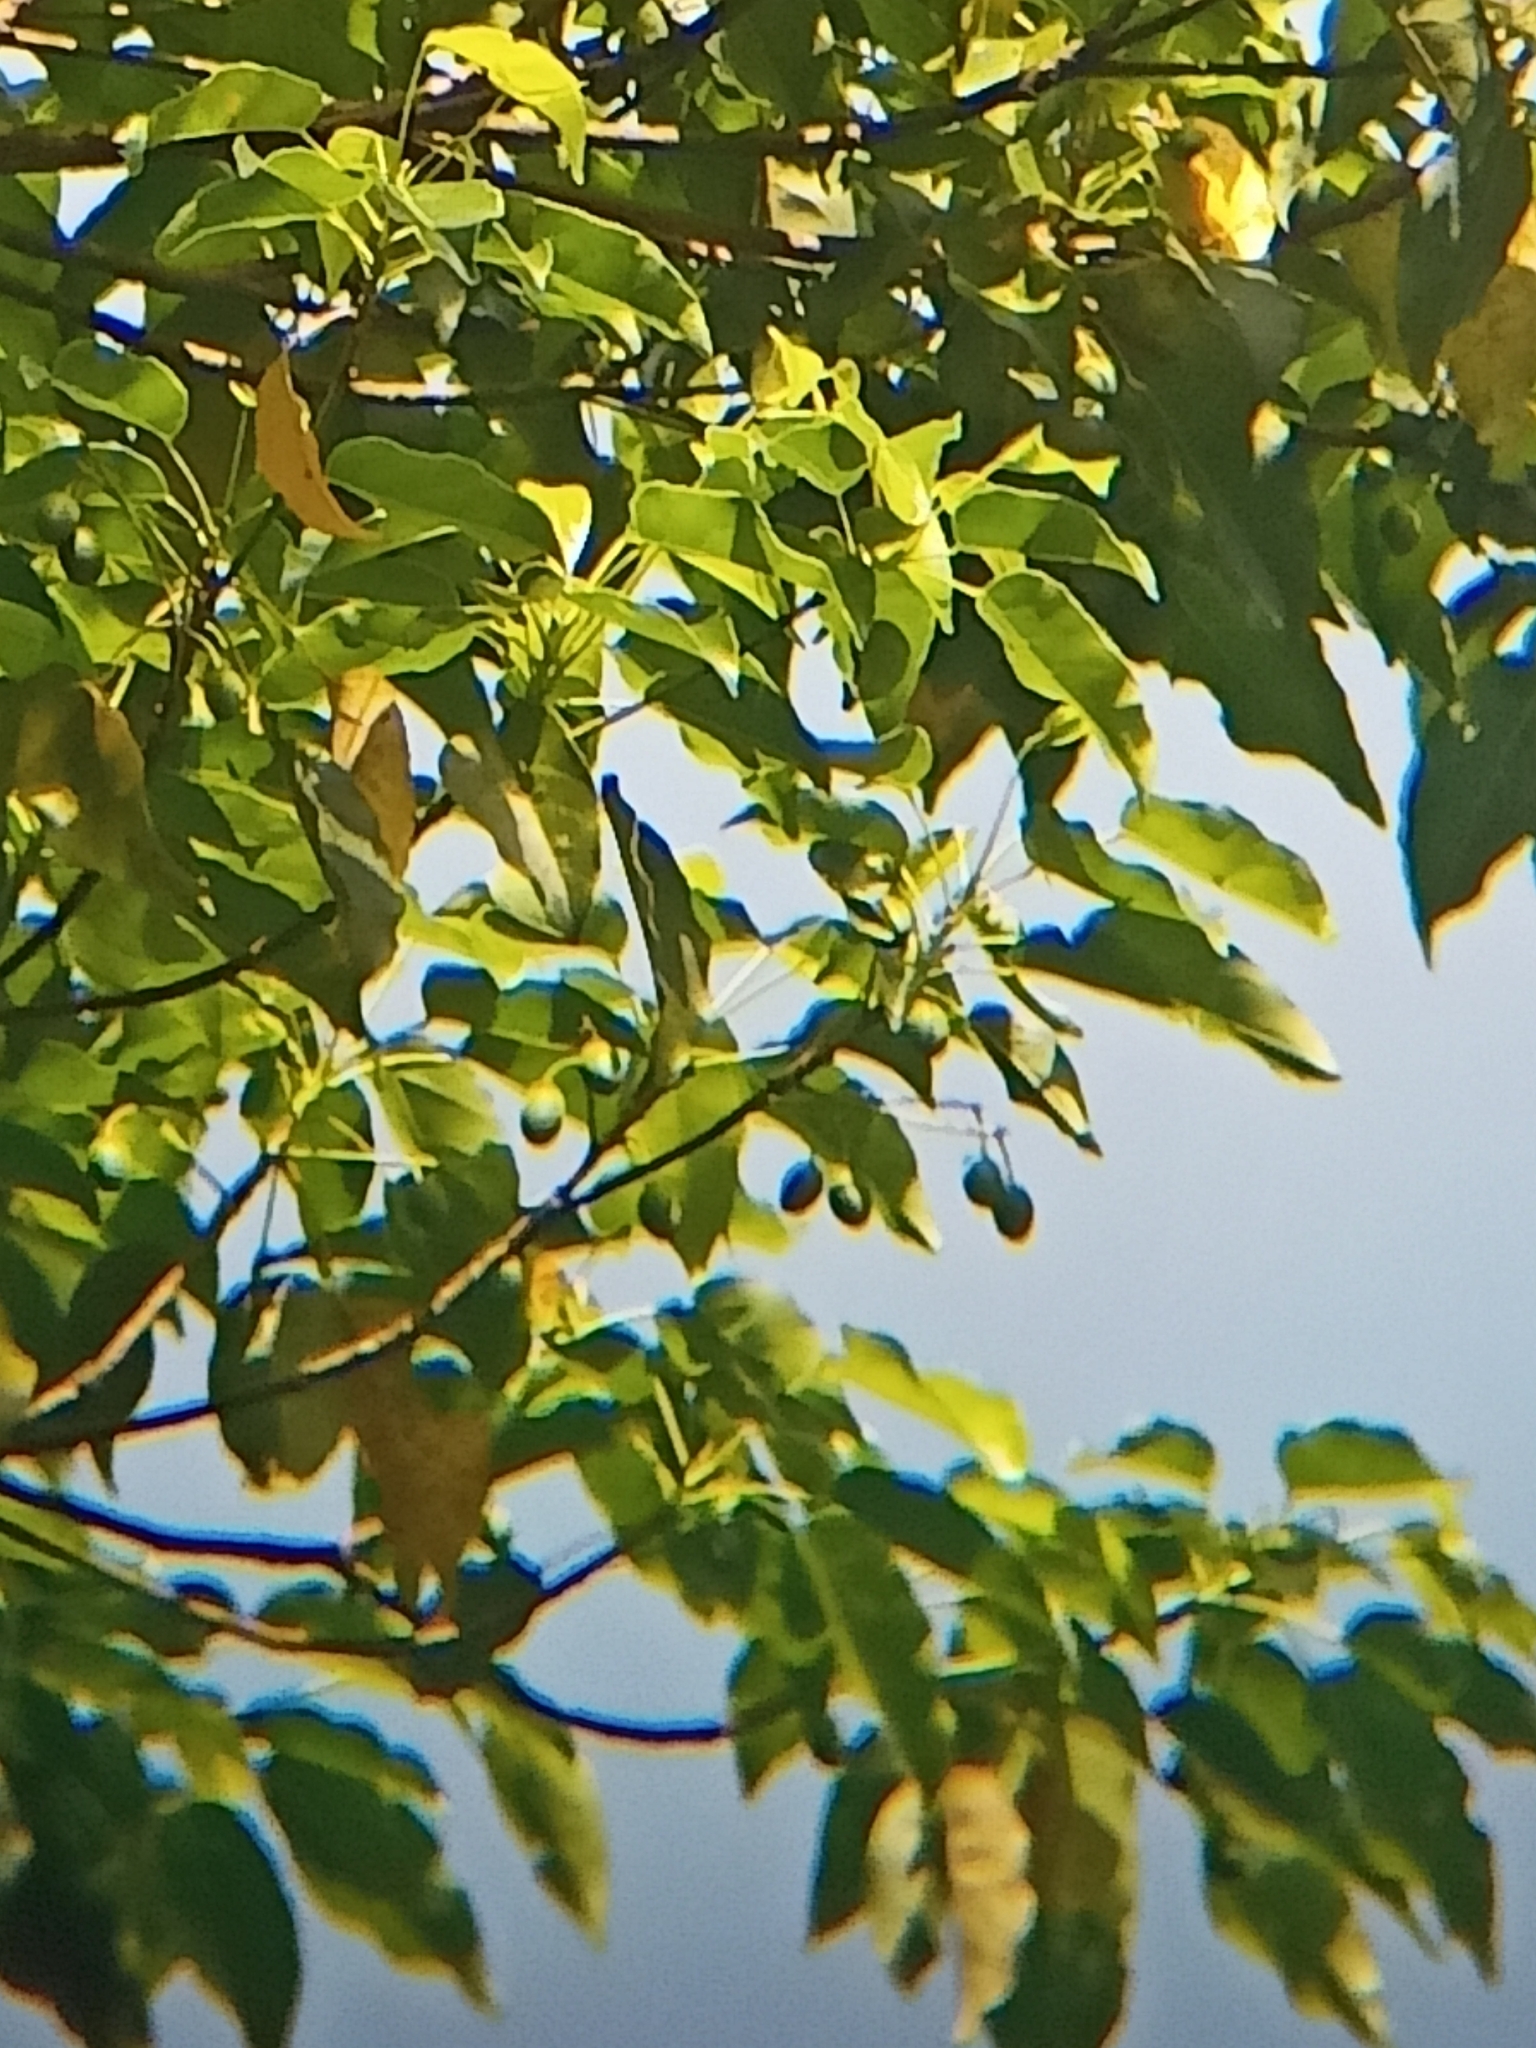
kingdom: Plantae
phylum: Tracheophyta
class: Magnoliopsida
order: Oxalidales
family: Elaeocarpaceae
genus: Elaeocarpus
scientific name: Elaeocarpus munroii
